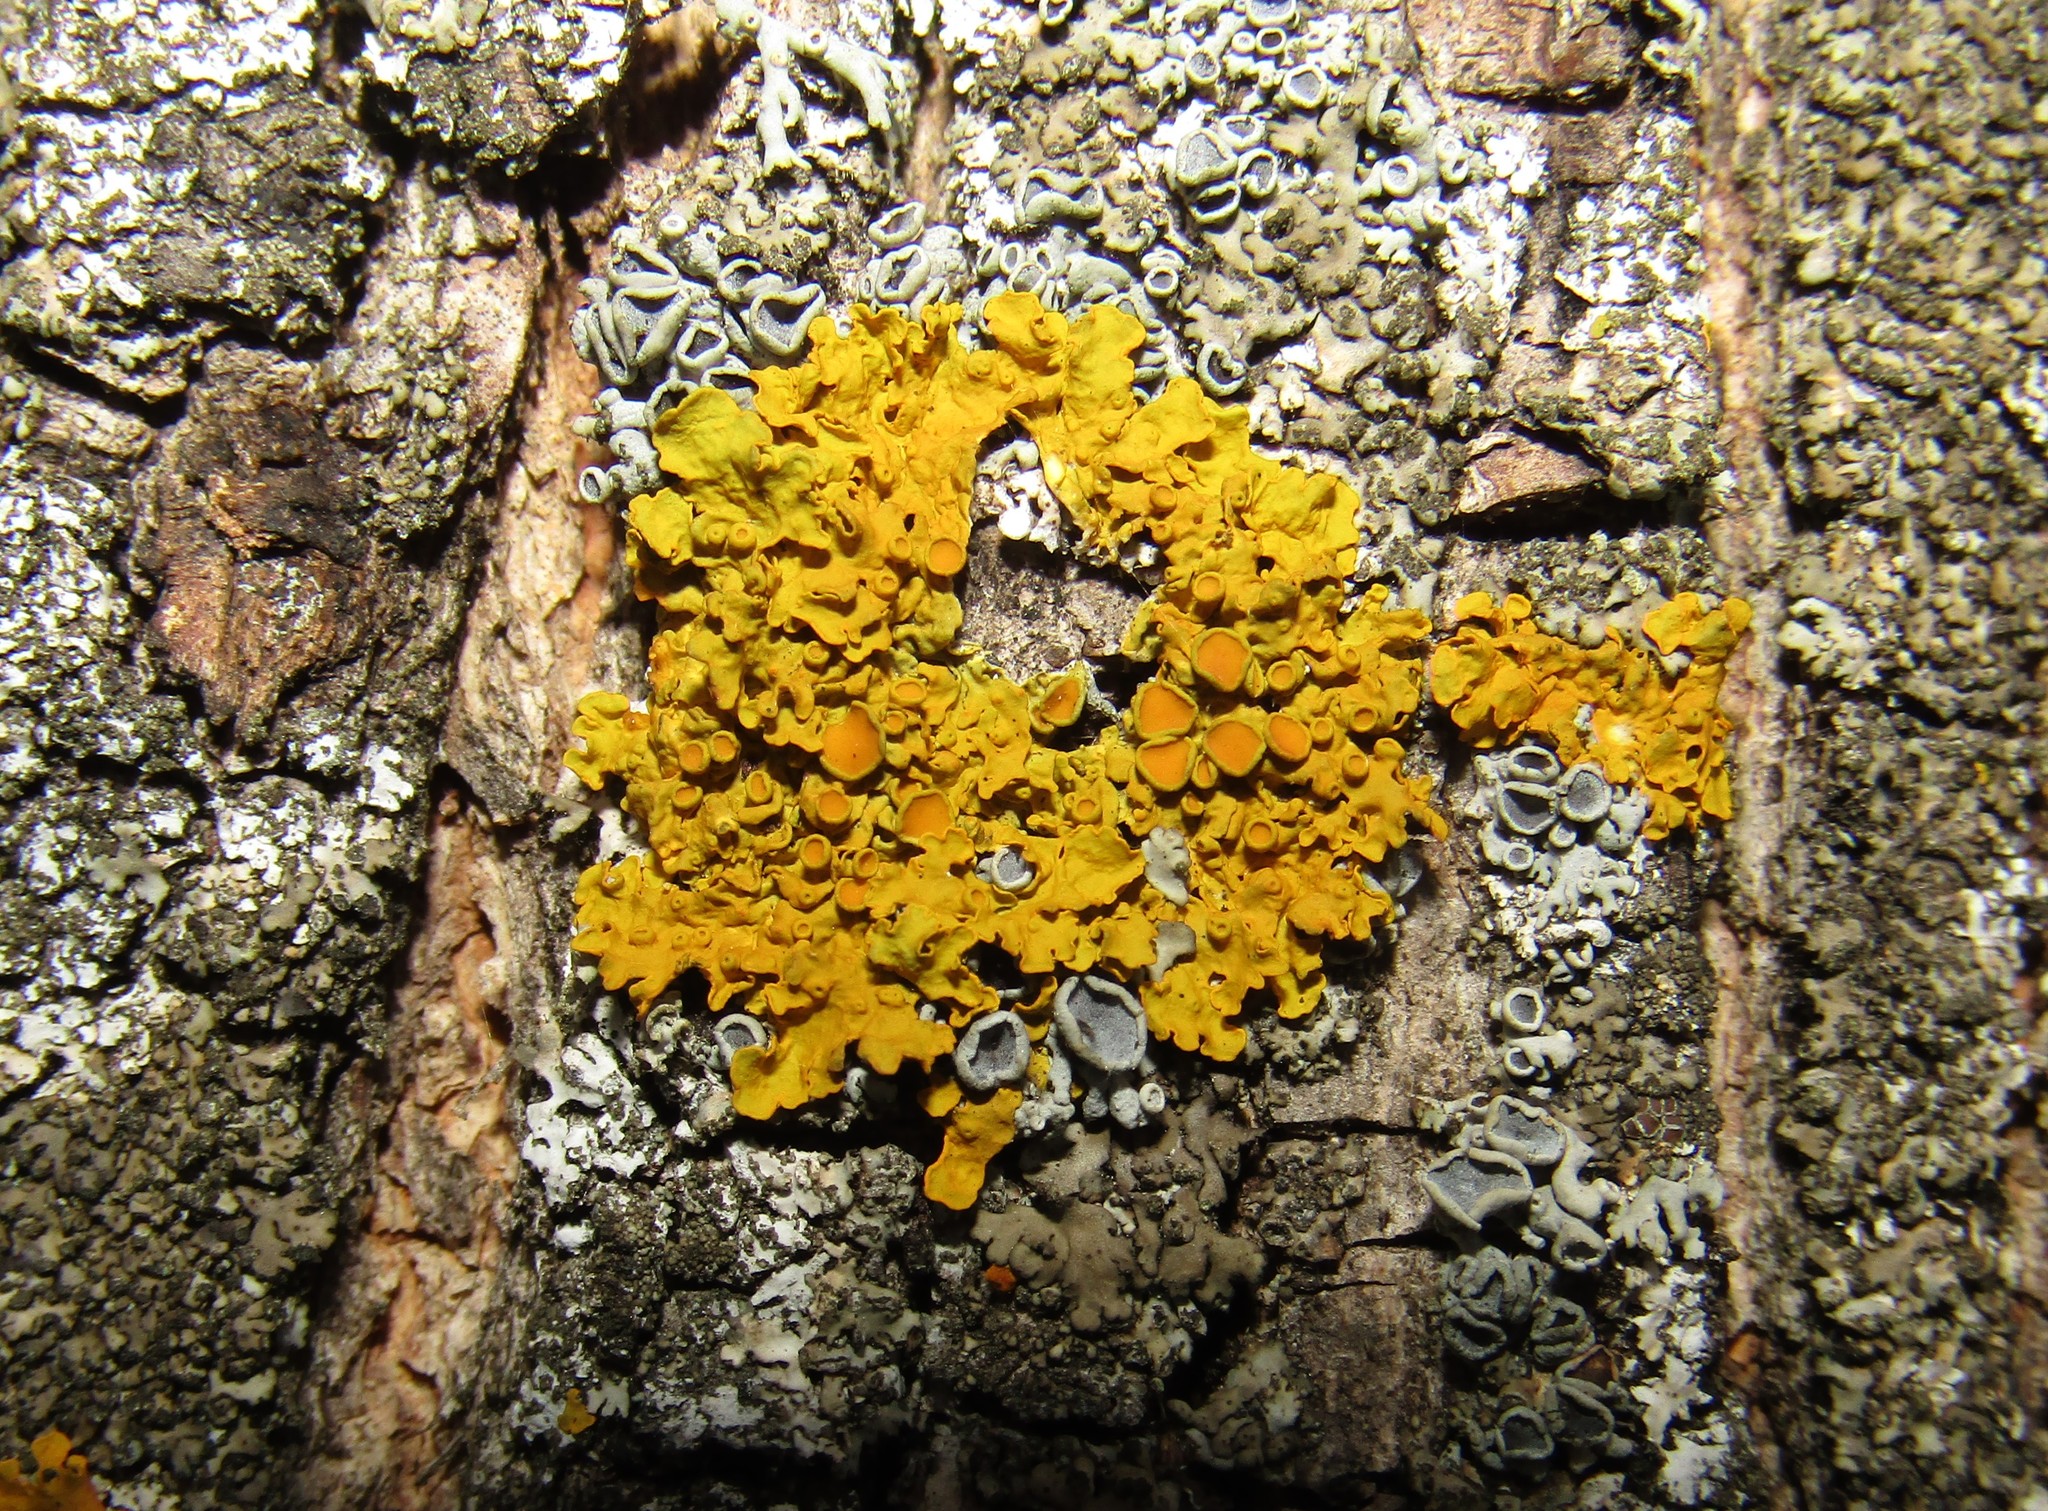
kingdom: Fungi
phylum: Ascomycota
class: Lecanoromycetes
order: Teloschistales
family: Teloschistaceae
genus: Xanthoria
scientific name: Xanthoria parietina
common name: Common orange lichen
